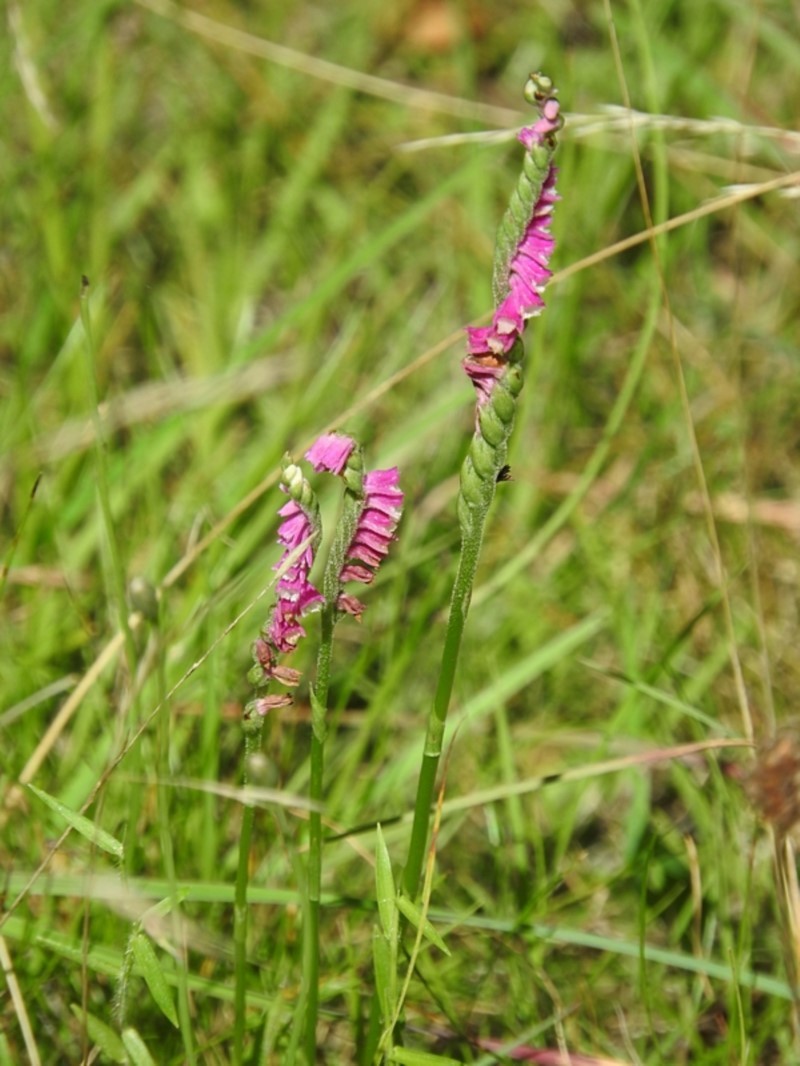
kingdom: Plantae
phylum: Tracheophyta
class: Liliopsida
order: Asparagales
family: Orchidaceae
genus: Spiranthes
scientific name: Spiranthes australis
